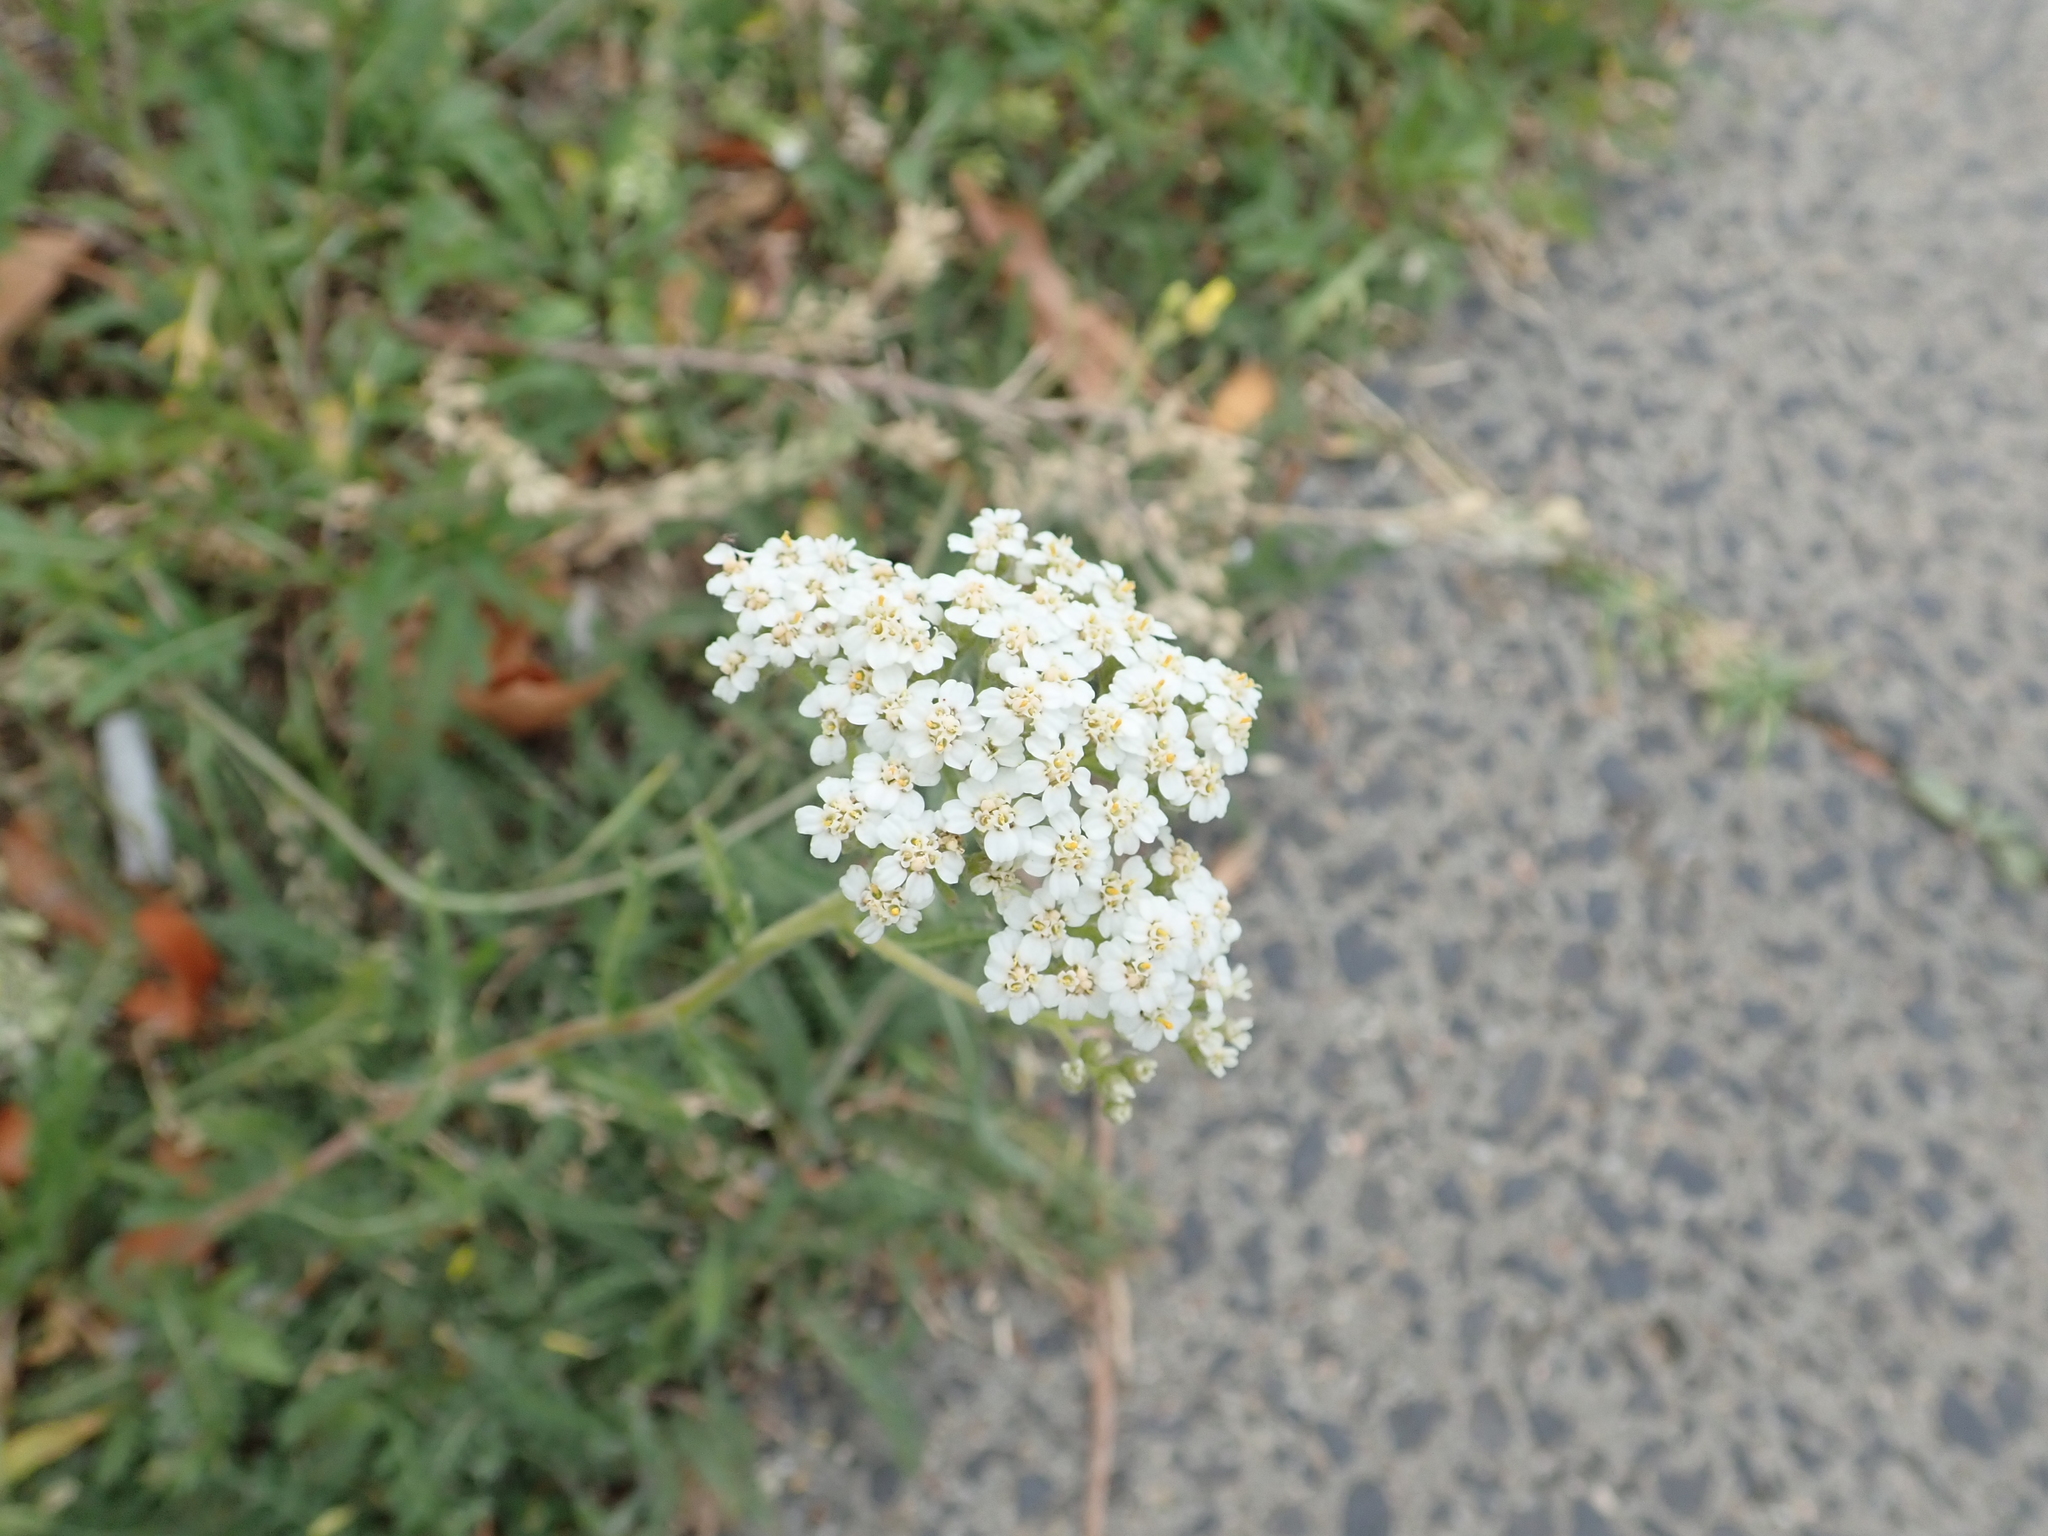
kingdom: Plantae
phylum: Tracheophyta
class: Magnoliopsida
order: Asterales
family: Asteraceae
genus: Achillea
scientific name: Achillea millefolium
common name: Yarrow
